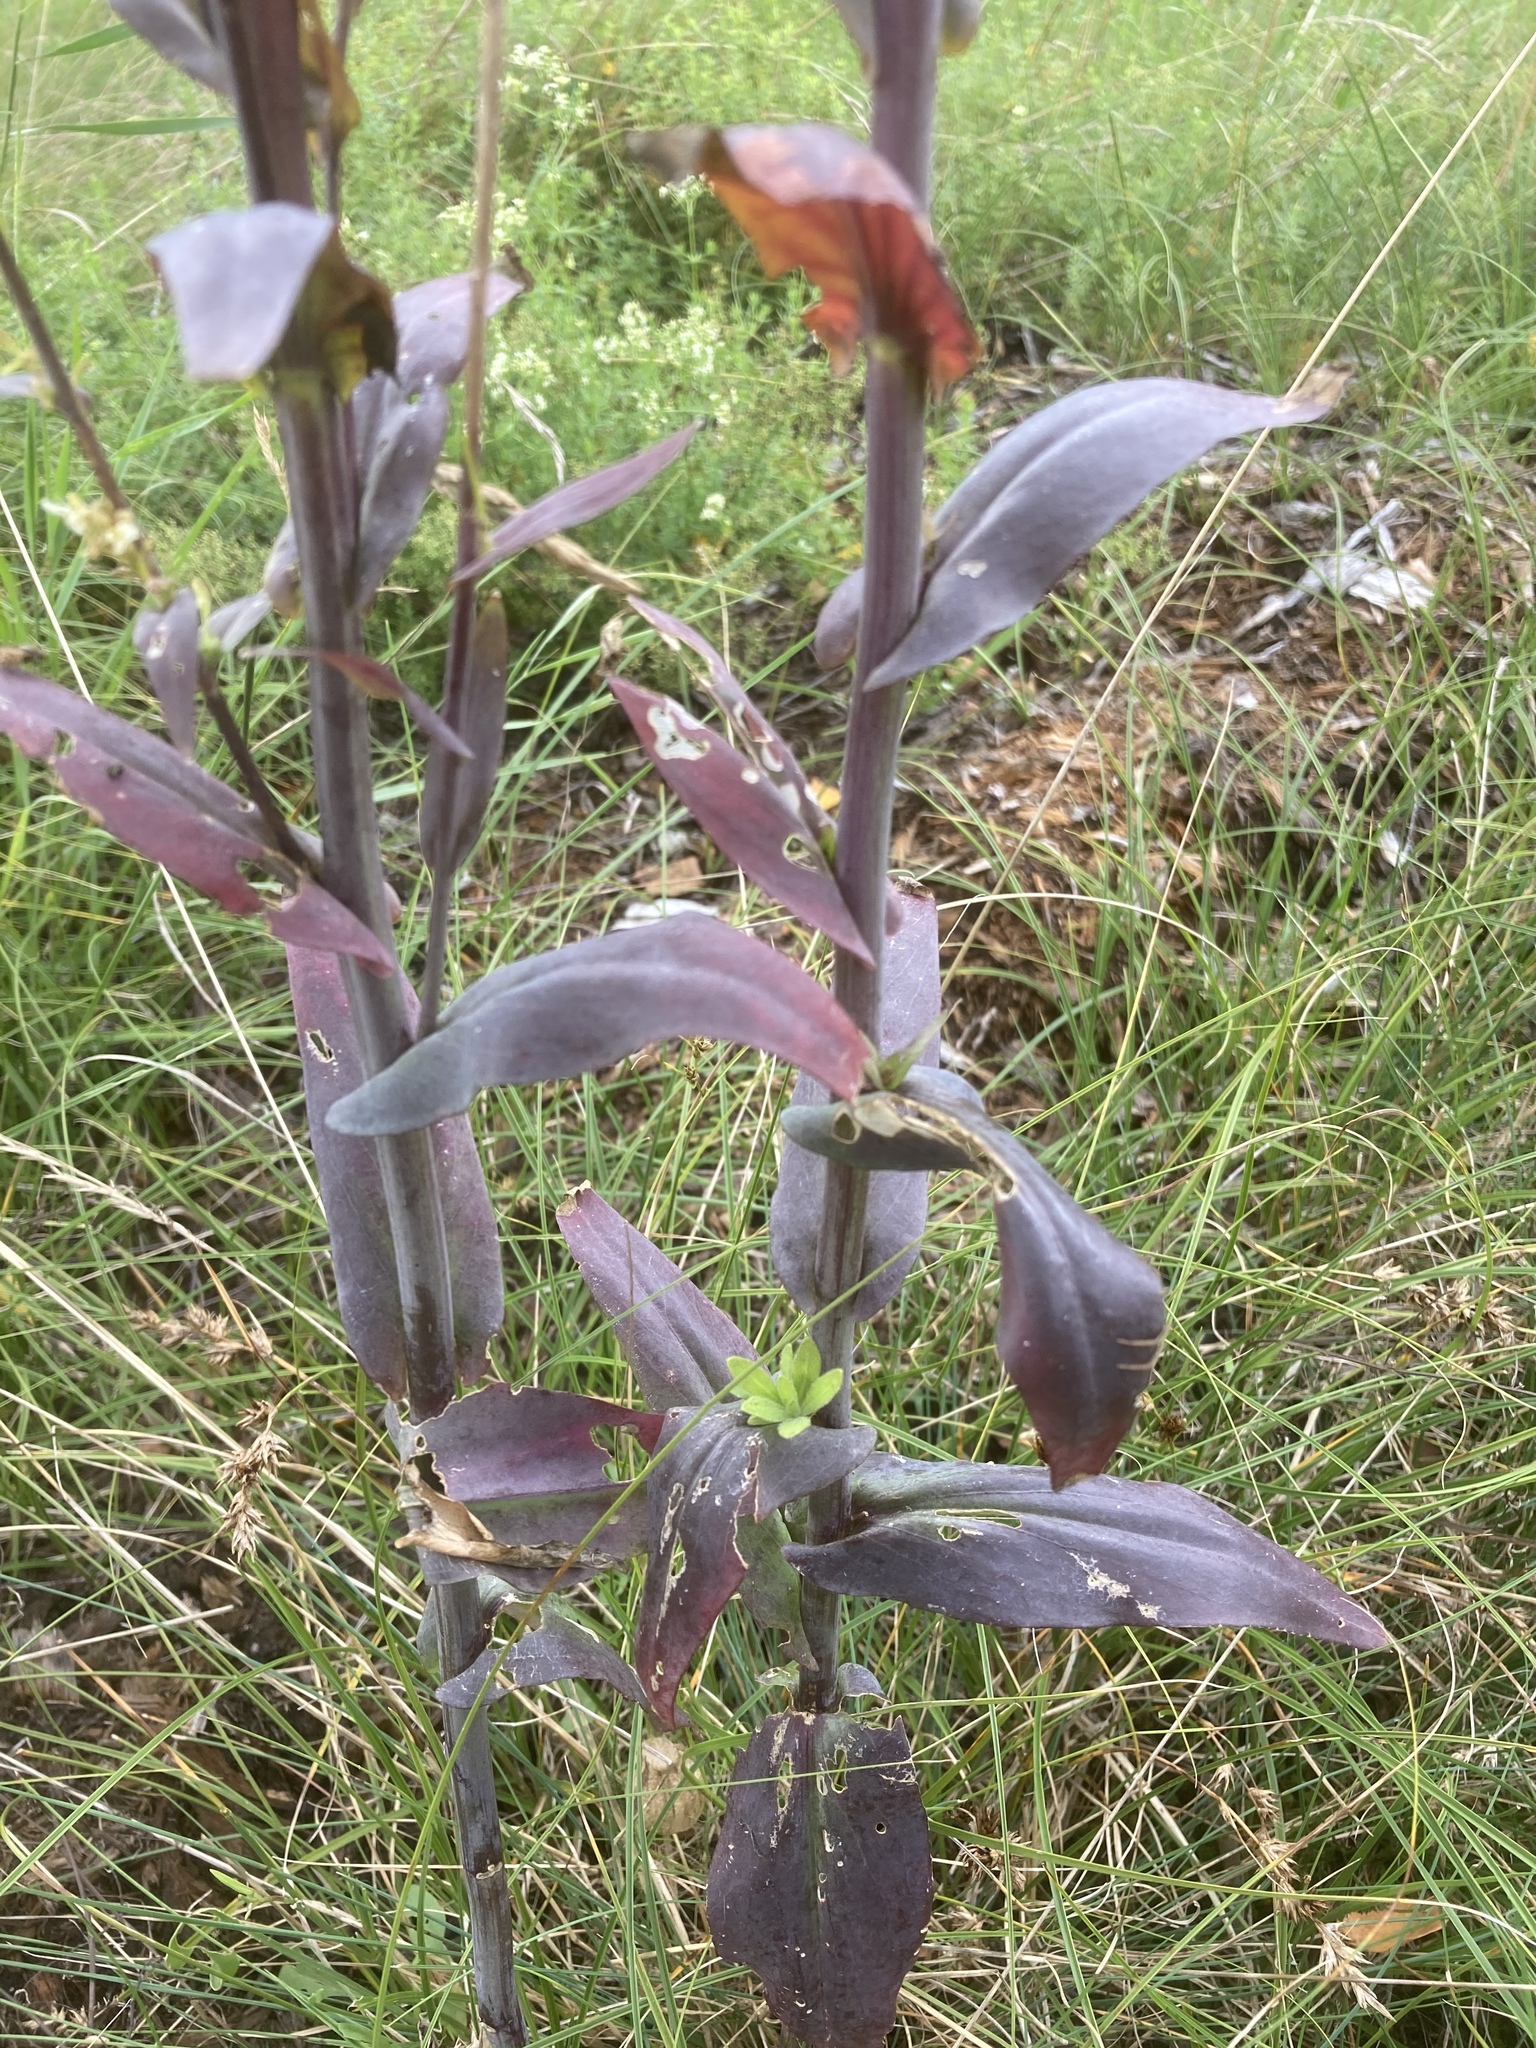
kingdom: Plantae
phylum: Tracheophyta
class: Magnoliopsida
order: Brassicales
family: Brassicaceae
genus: Turritis
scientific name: Turritis glabra
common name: Tower rockcress
